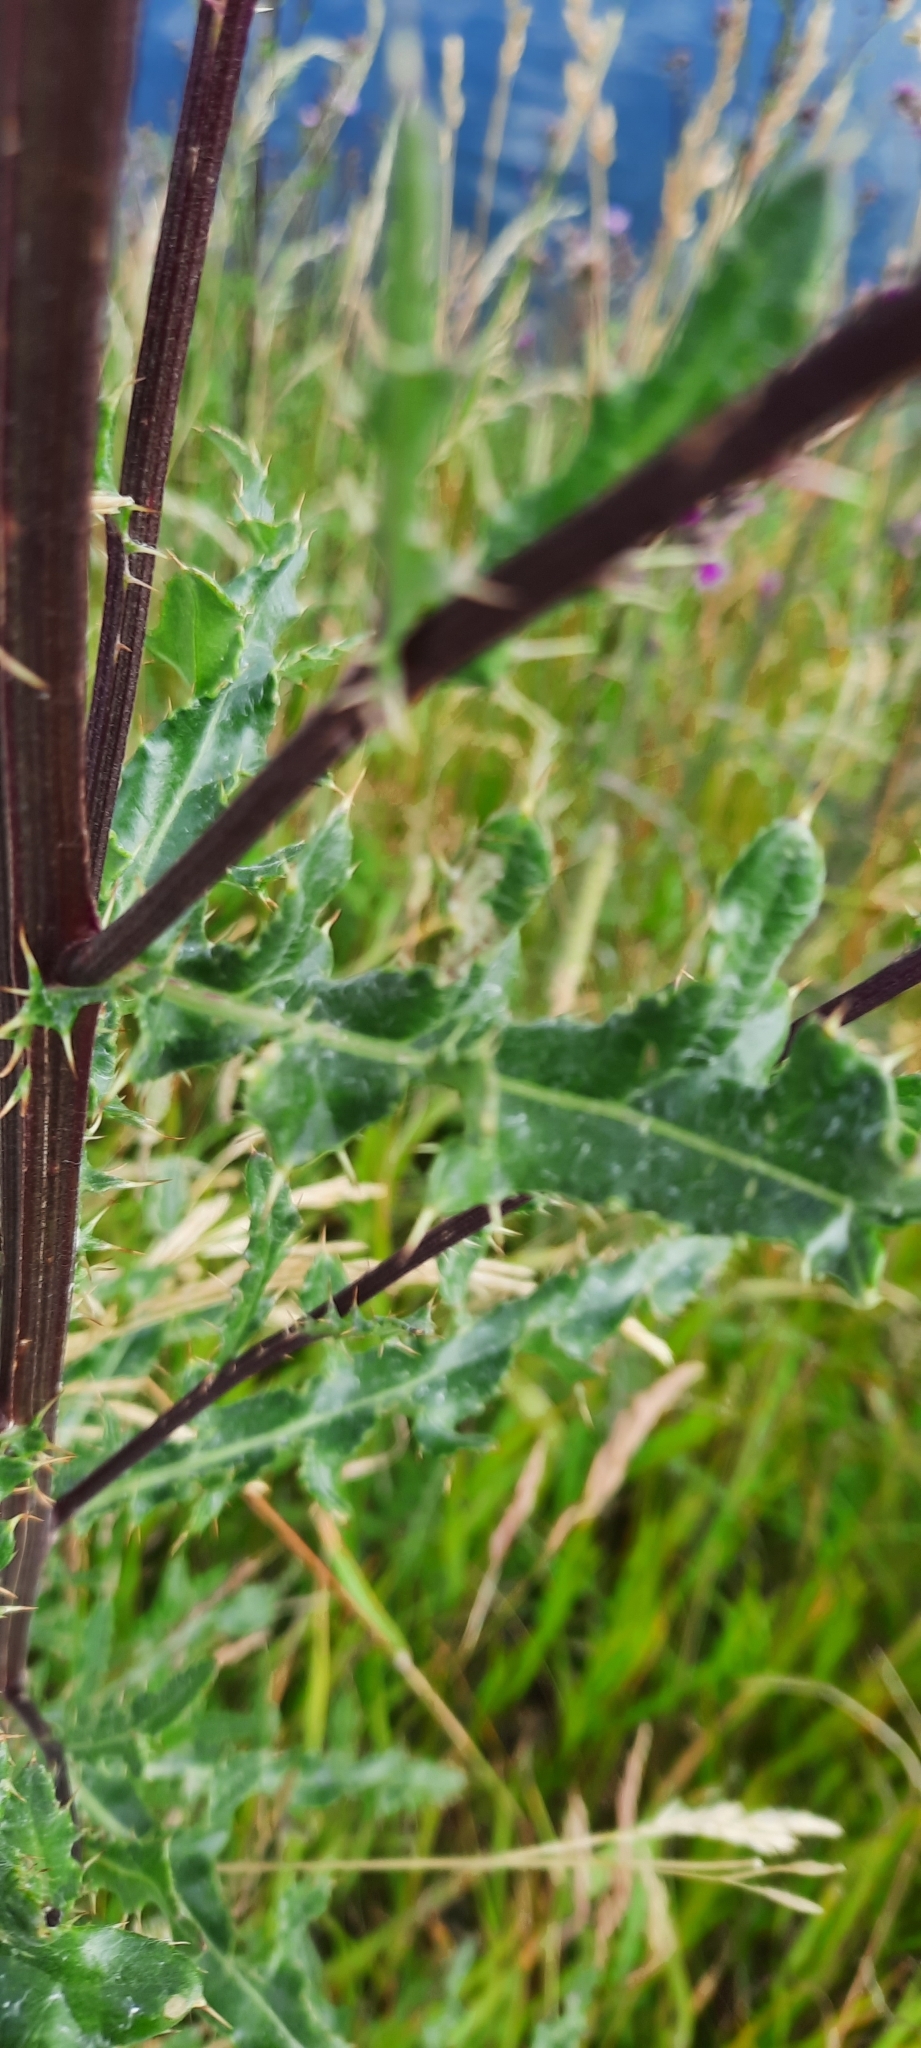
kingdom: Plantae
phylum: Tracheophyta
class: Magnoliopsida
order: Asterales
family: Asteraceae
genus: Cirsium
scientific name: Cirsium arvense
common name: Creeping thistle
